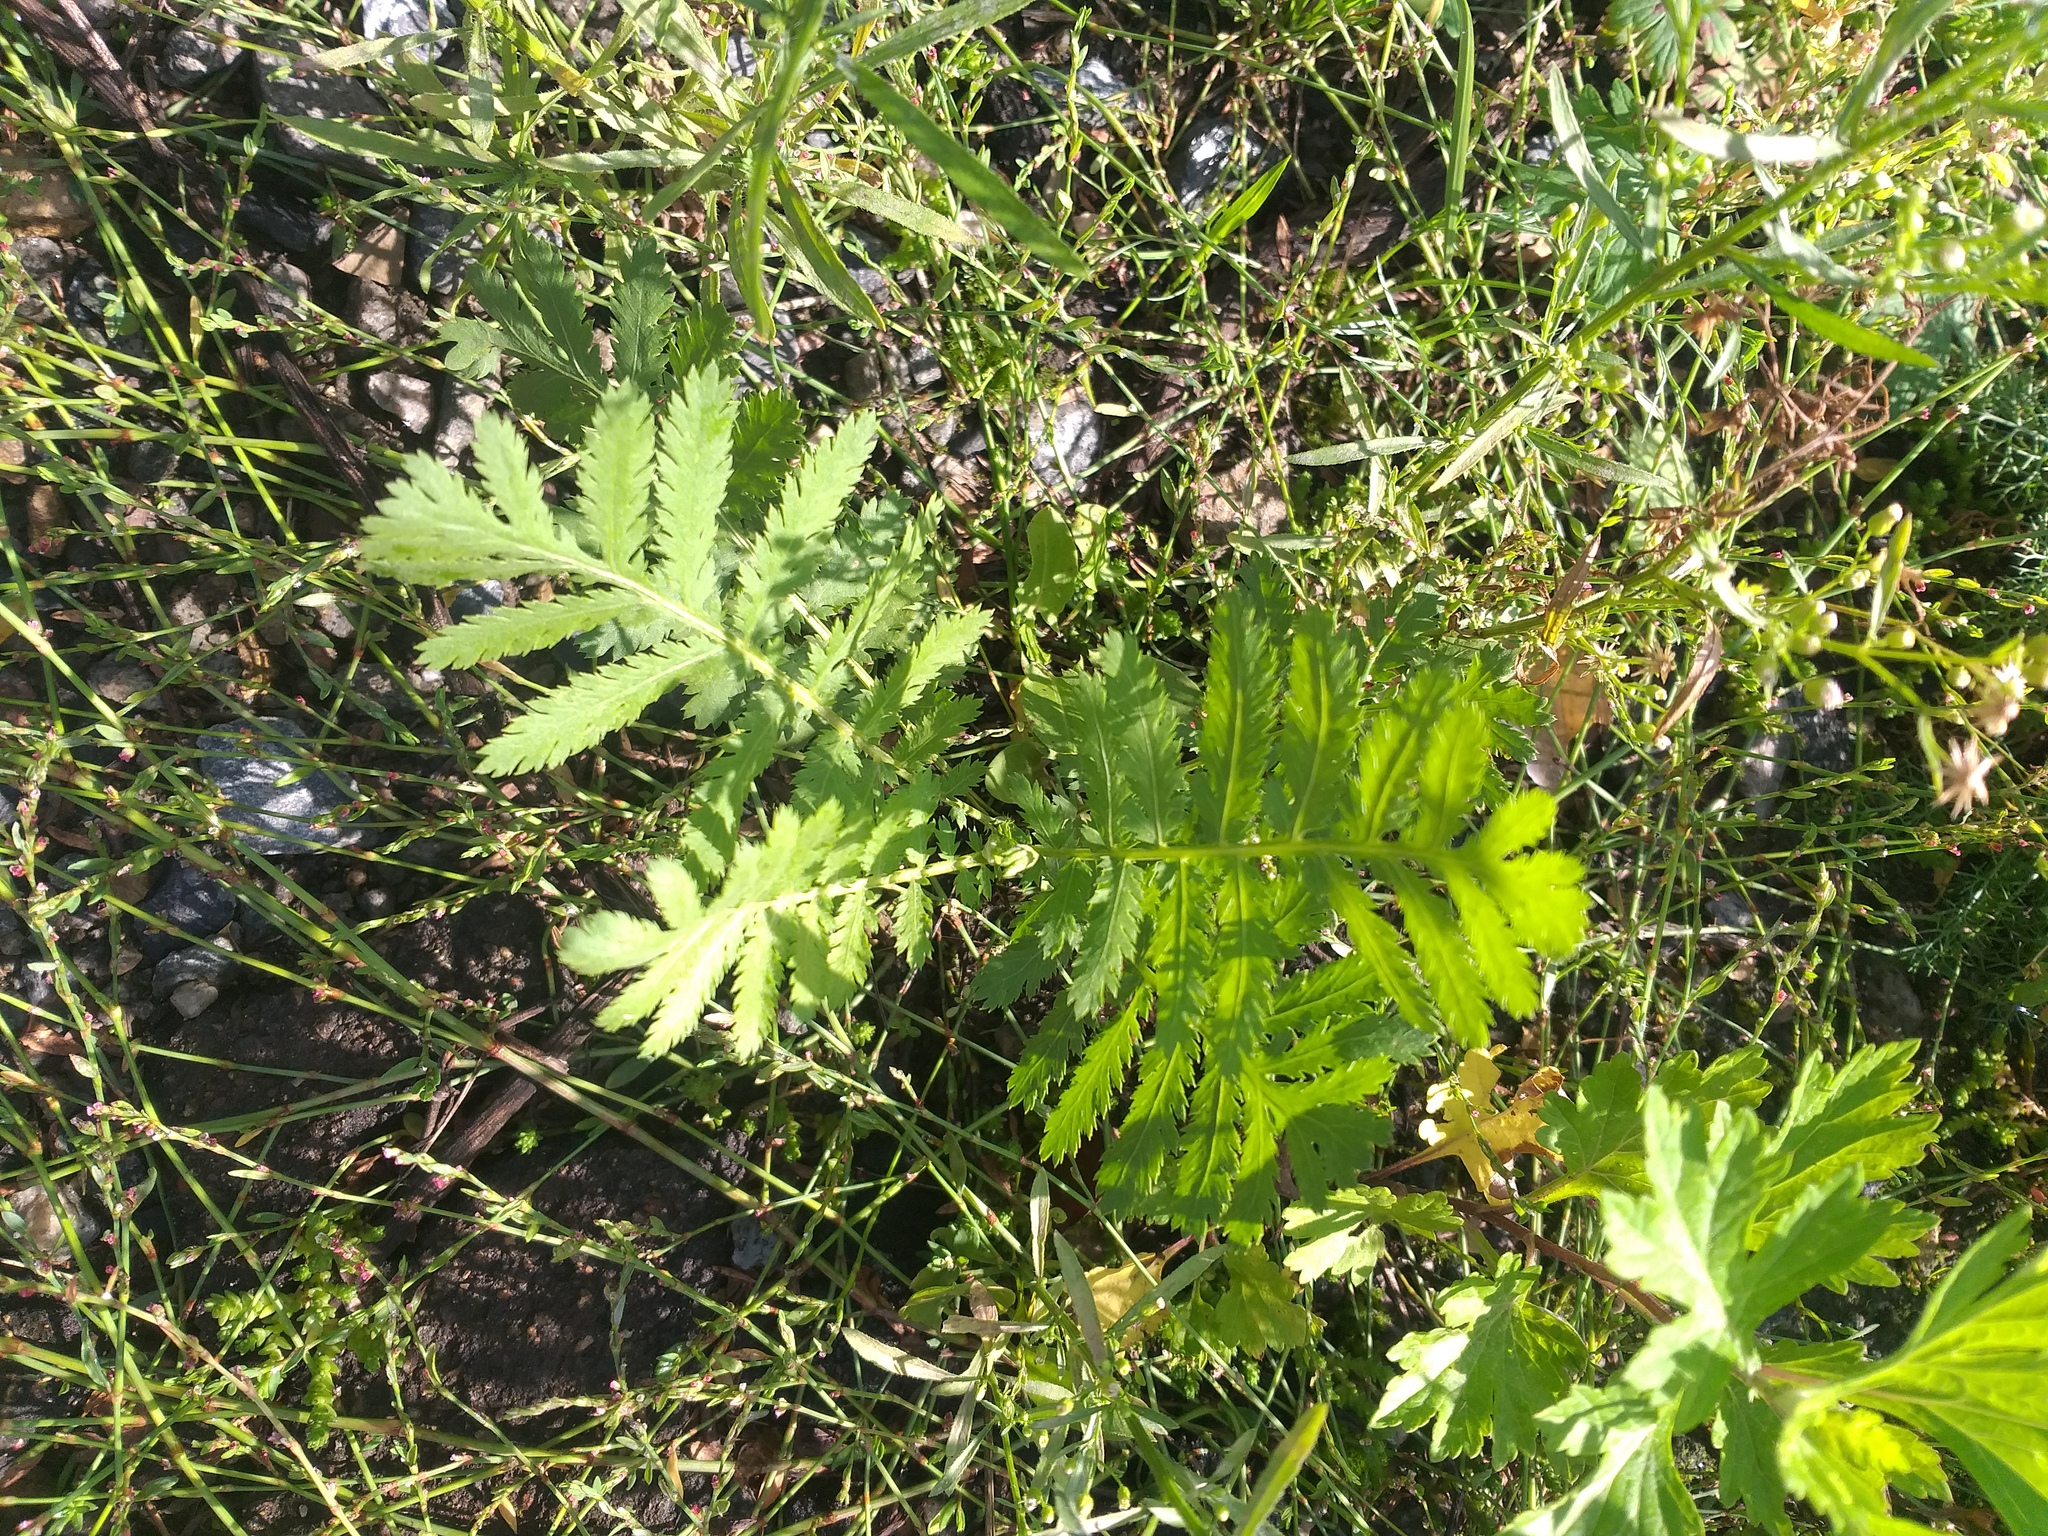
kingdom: Plantae
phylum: Tracheophyta
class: Magnoliopsida
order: Asterales
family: Asteraceae
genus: Tanacetum
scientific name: Tanacetum vulgare
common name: Common tansy
